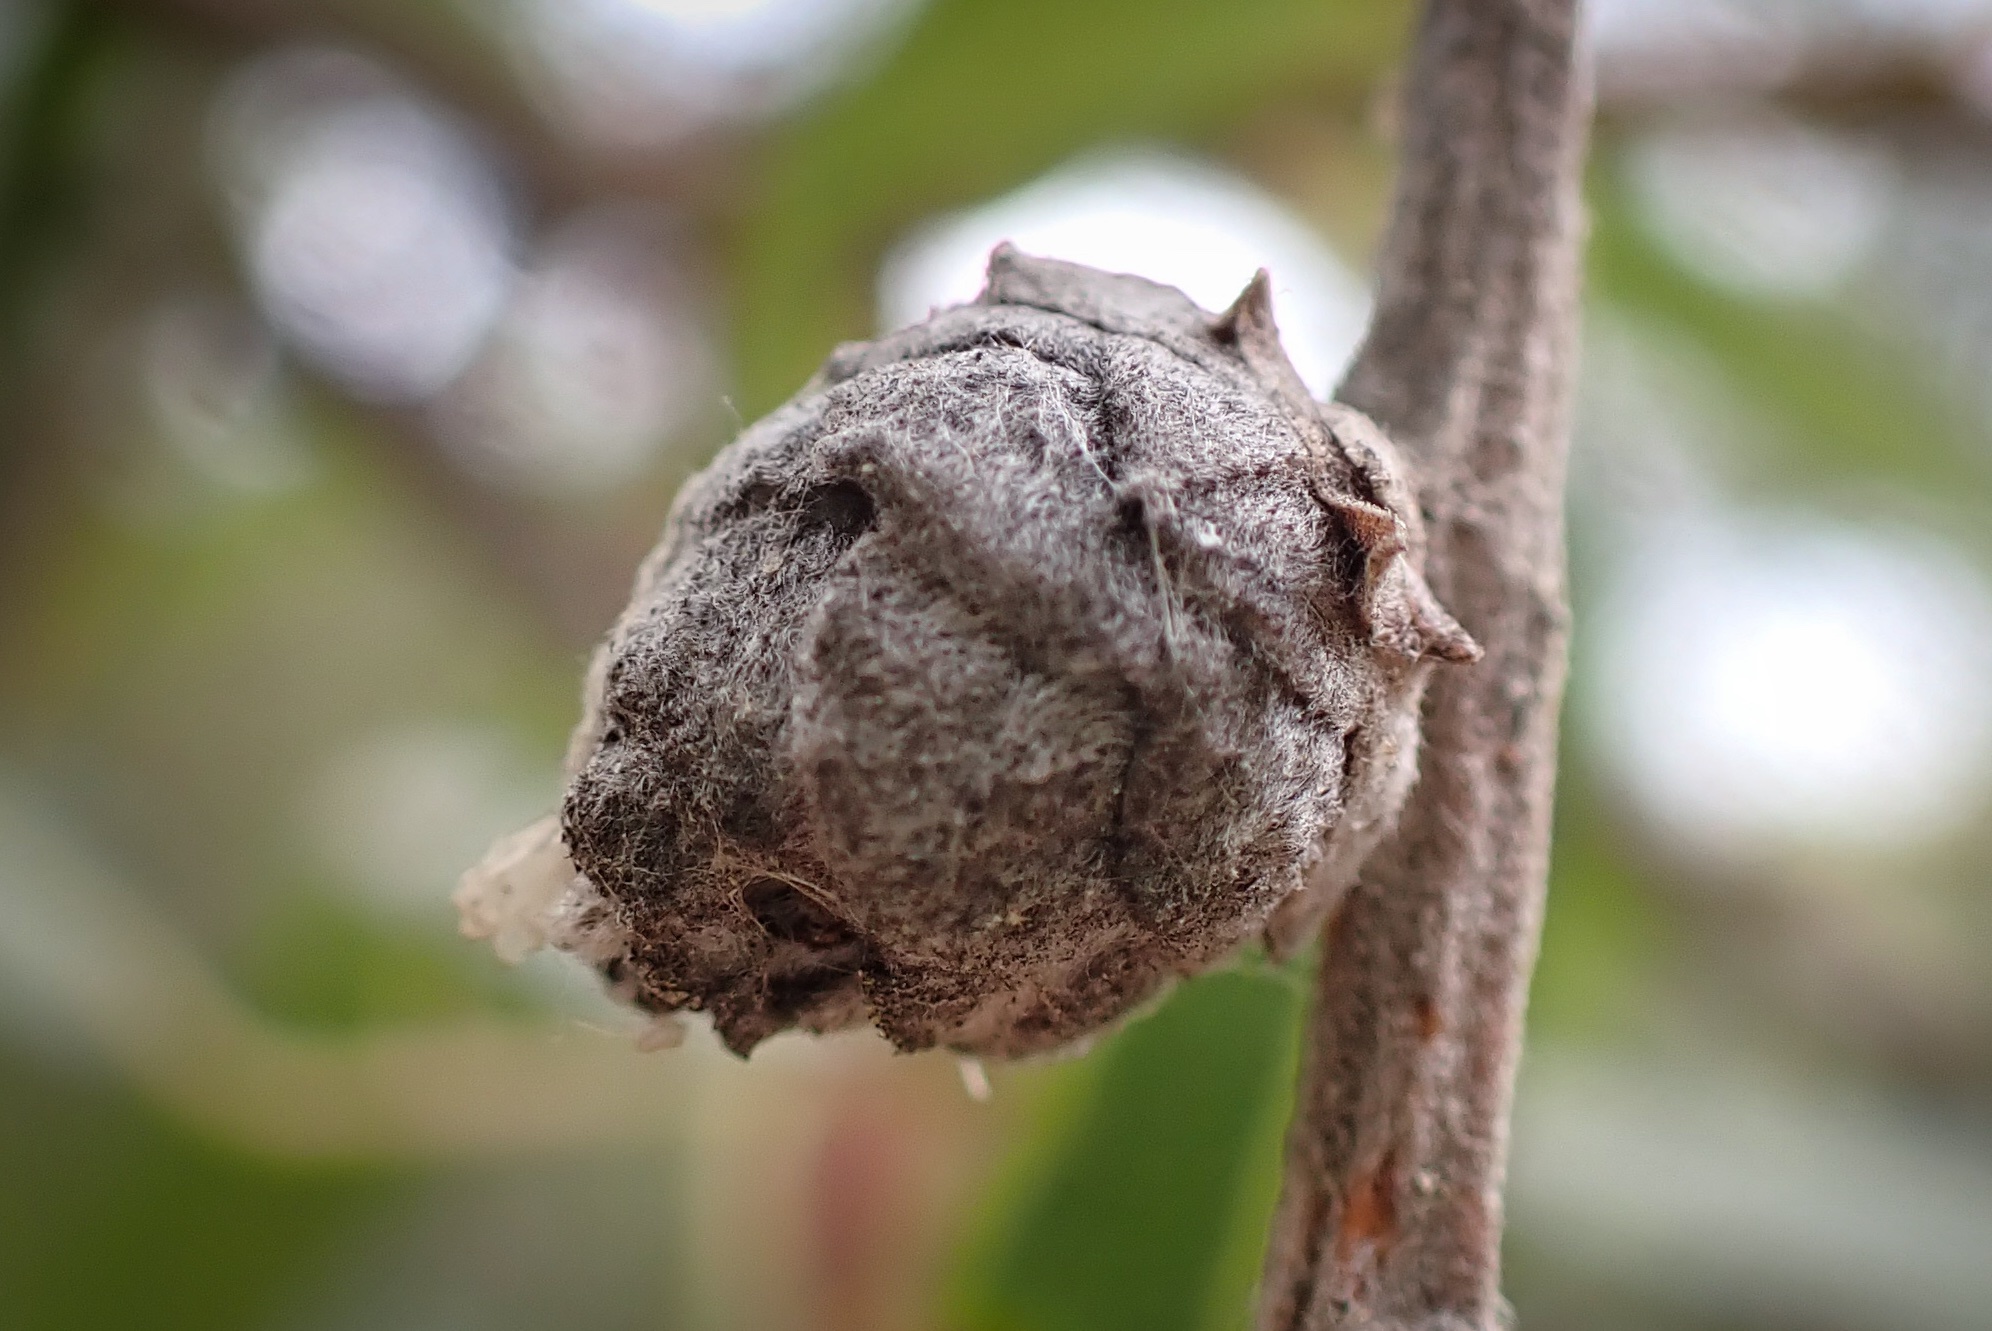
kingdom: Animalia
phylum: Arthropoda
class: Insecta
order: Diptera
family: Cecidomyiidae
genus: Rabdophaga
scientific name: Rabdophaga strobiloides
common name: Willow pinecone gall midge
